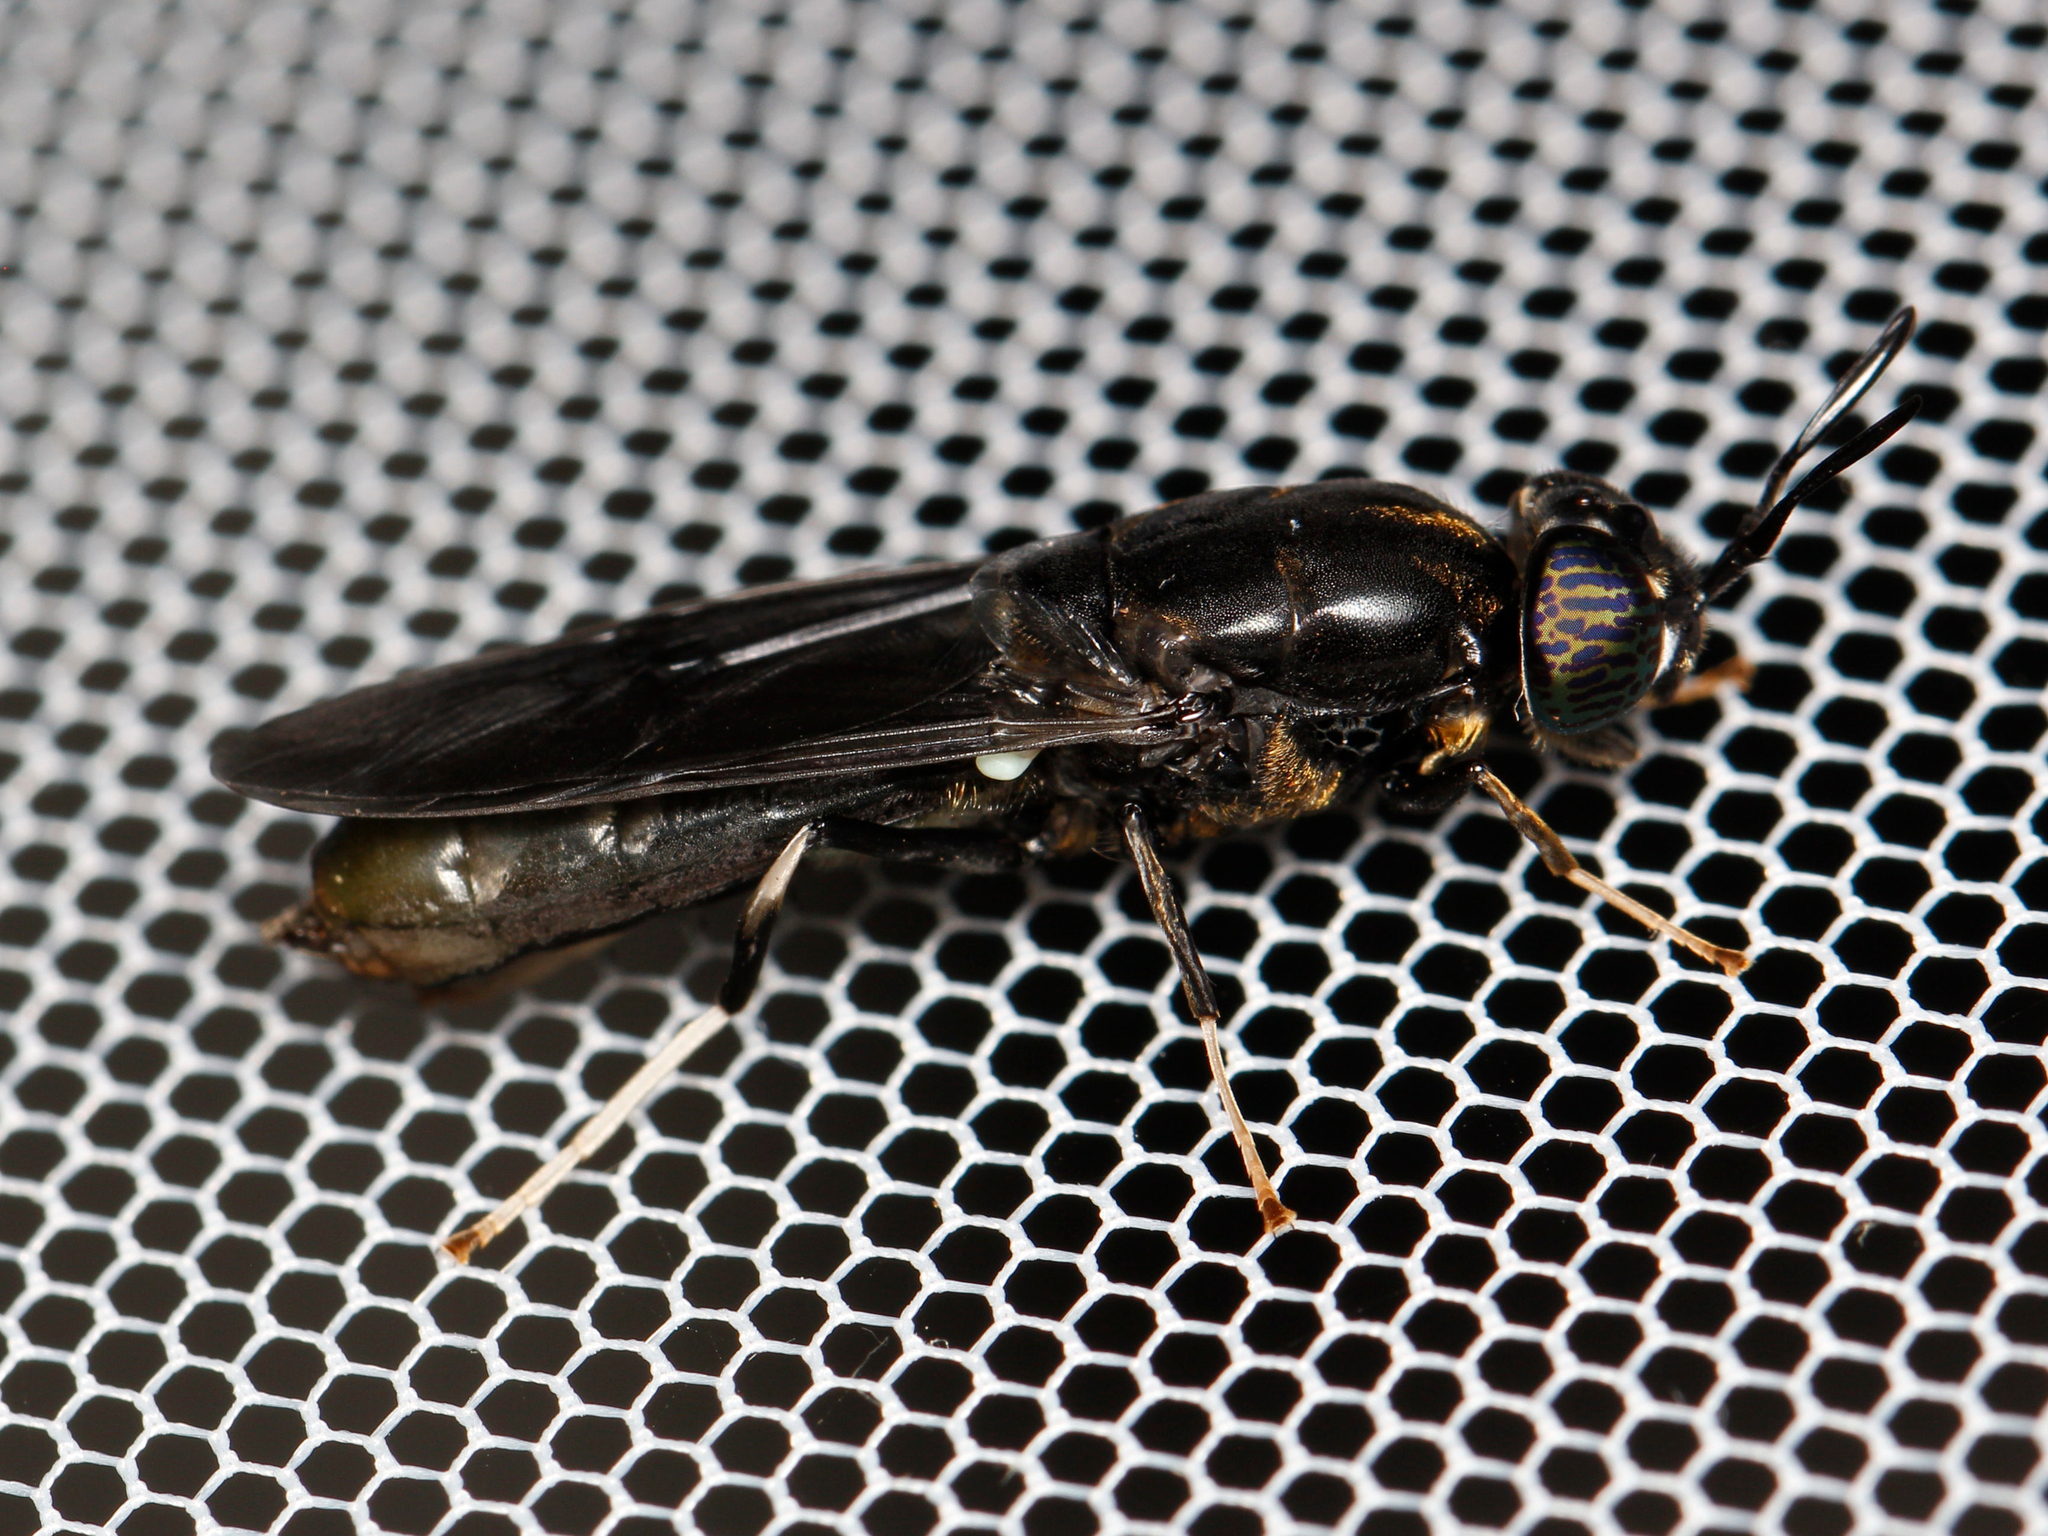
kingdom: Animalia
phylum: Arthropoda
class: Insecta
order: Diptera
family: Stratiomyidae
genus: Hermetia
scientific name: Hermetia illucens
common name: Black soldier fly
